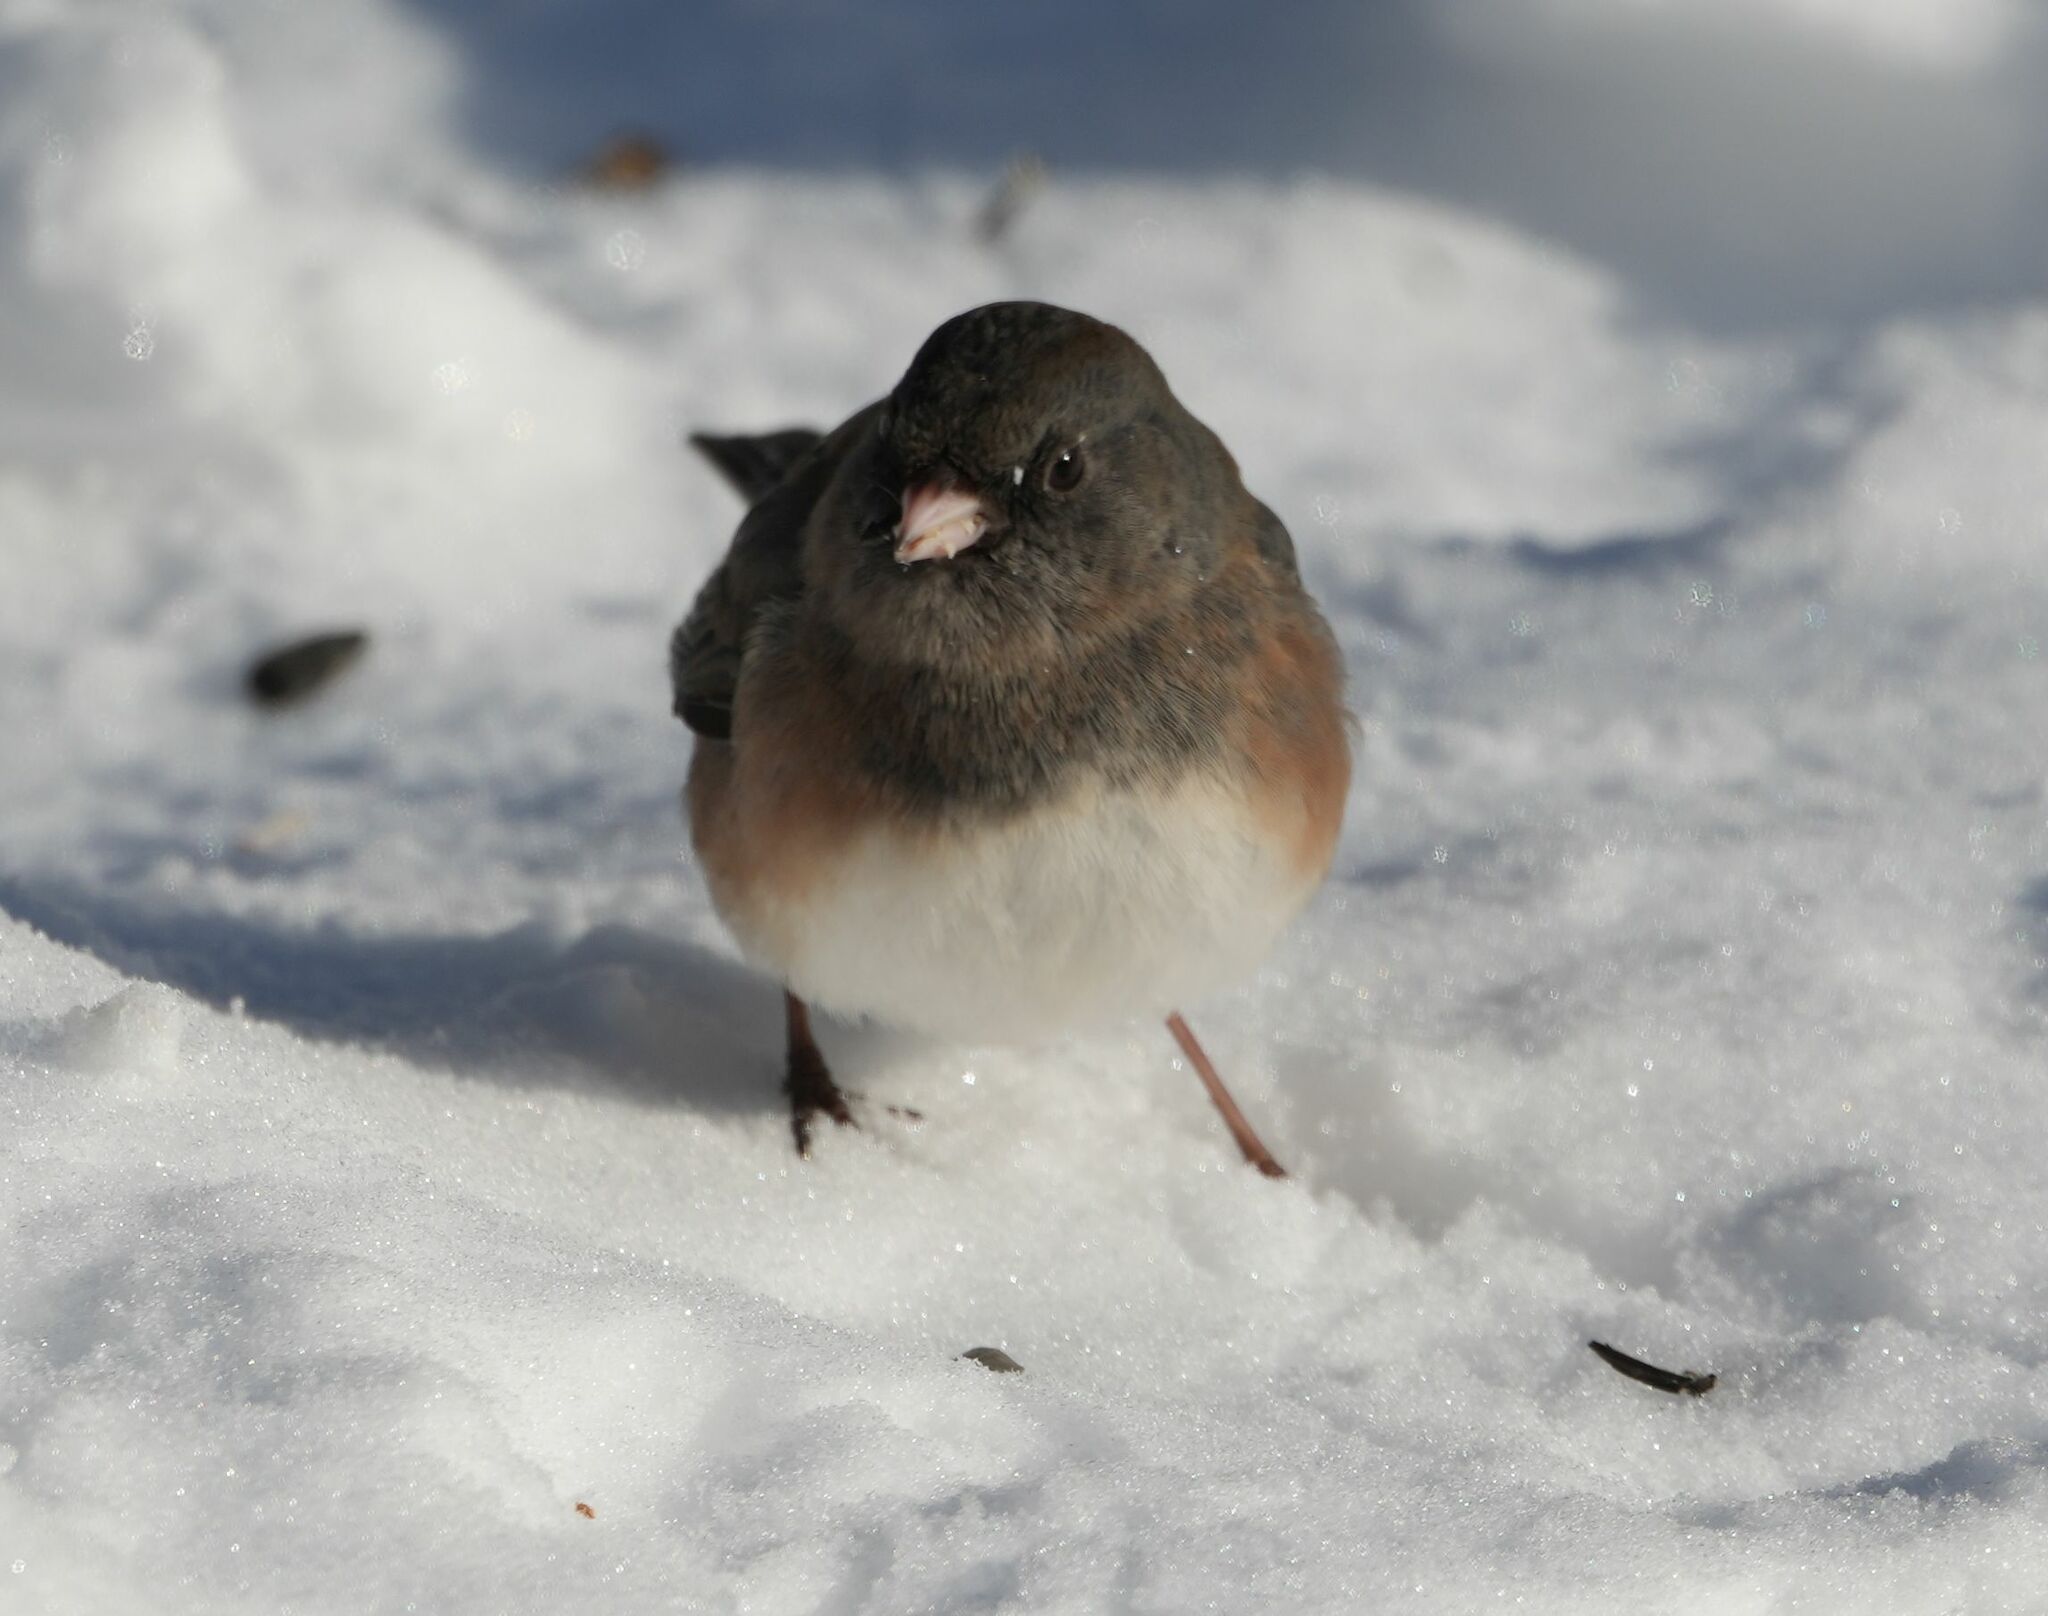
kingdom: Animalia
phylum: Chordata
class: Aves
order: Passeriformes
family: Passerellidae
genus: Junco
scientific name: Junco hyemalis
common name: Dark-eyed junco
